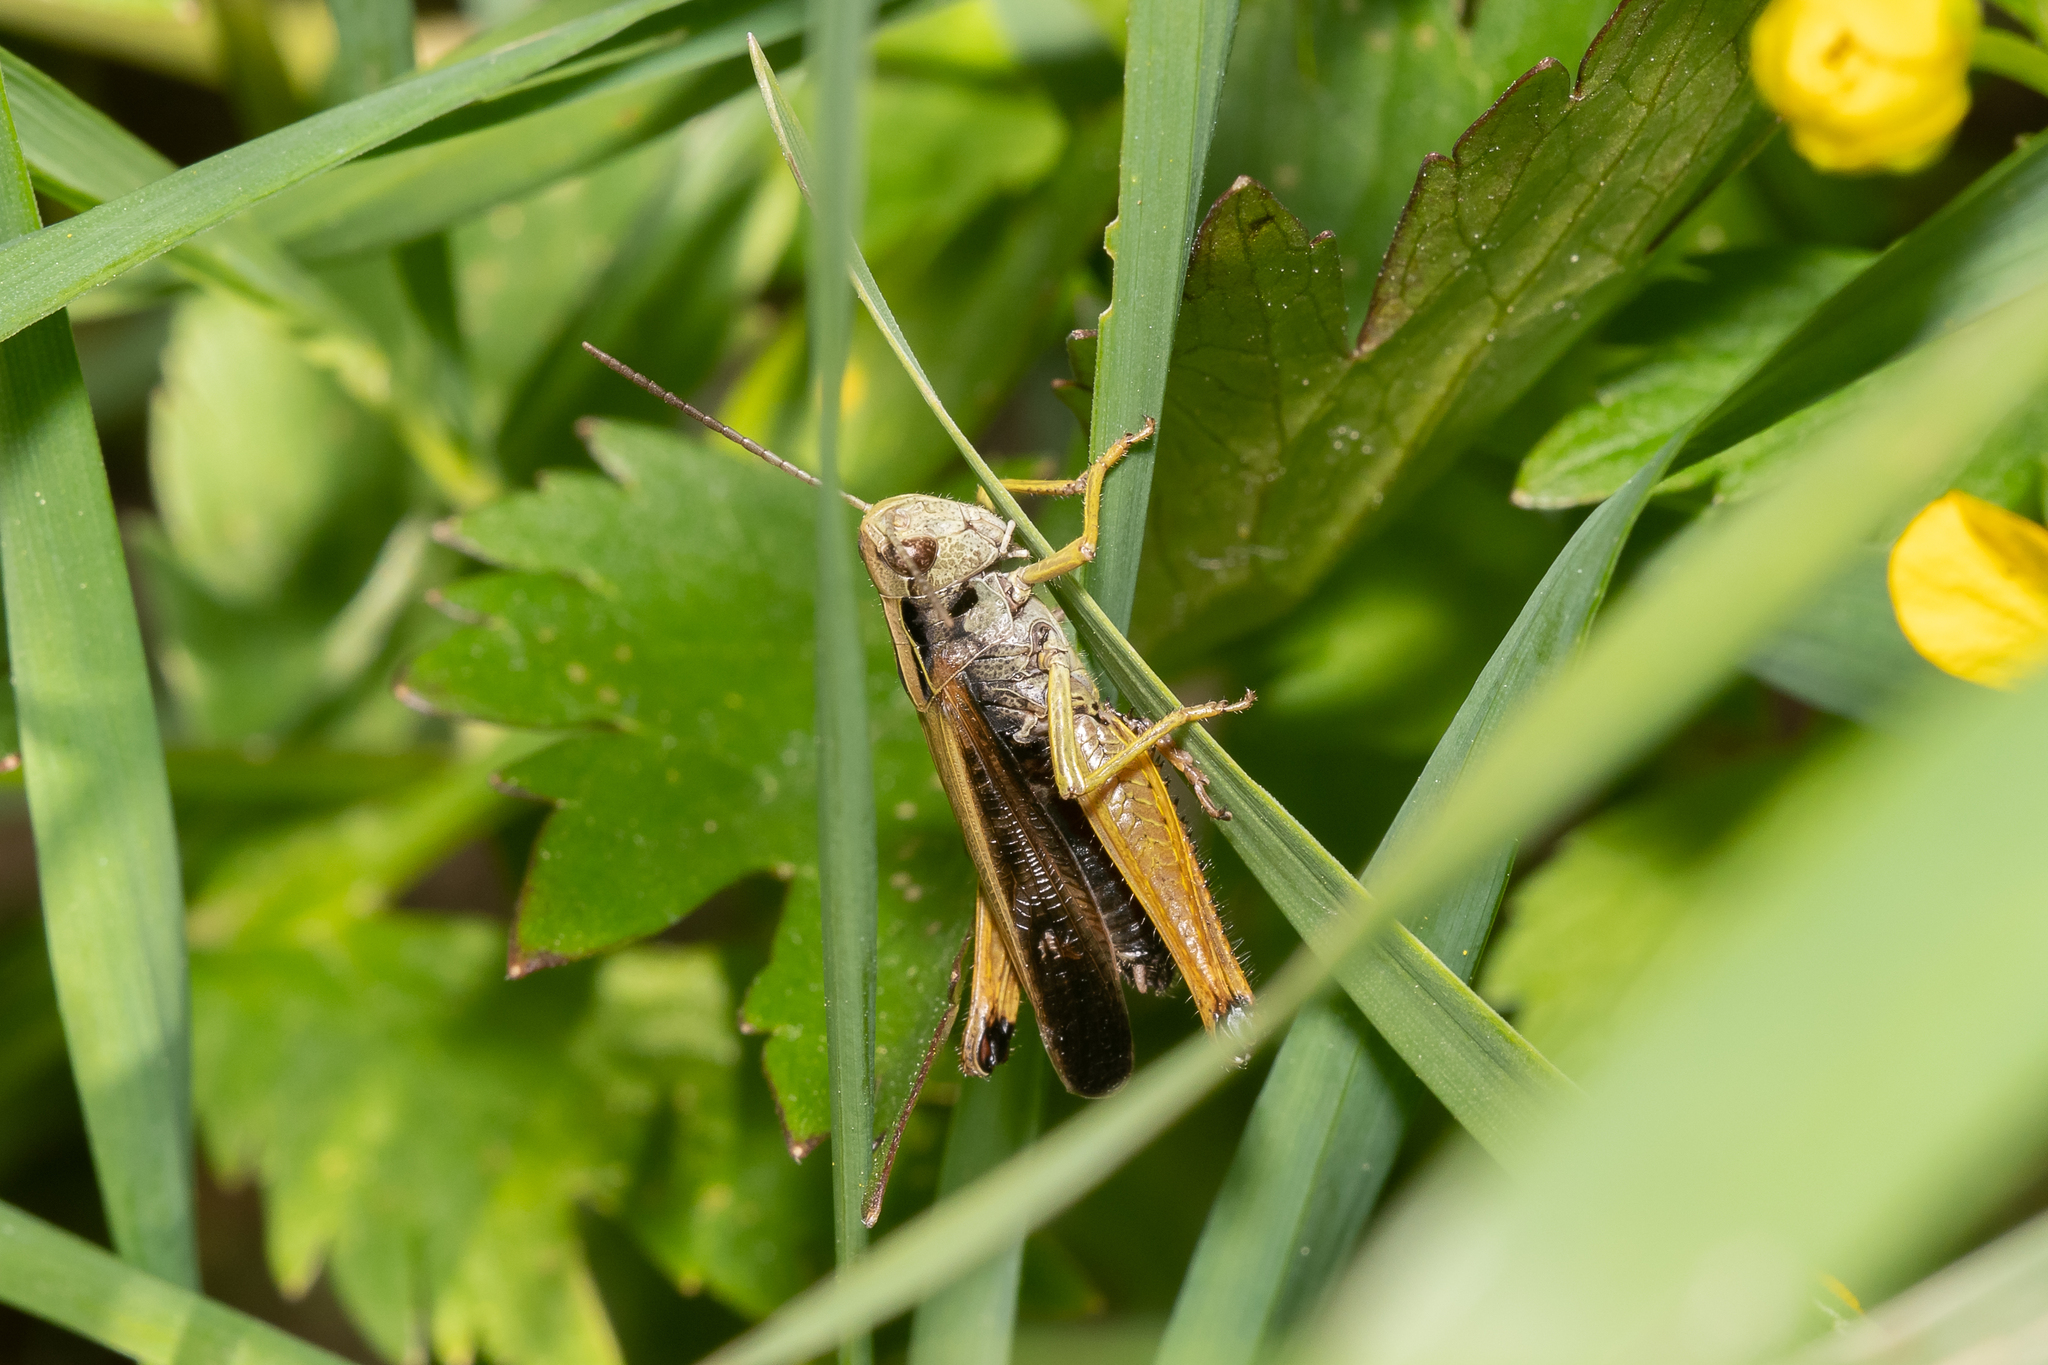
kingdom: Animalia
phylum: Arthropoda
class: Insecta
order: Orthoptera
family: Acrididae
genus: Omocestus
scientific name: Omocestus viridulus
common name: Common green grasshopper
